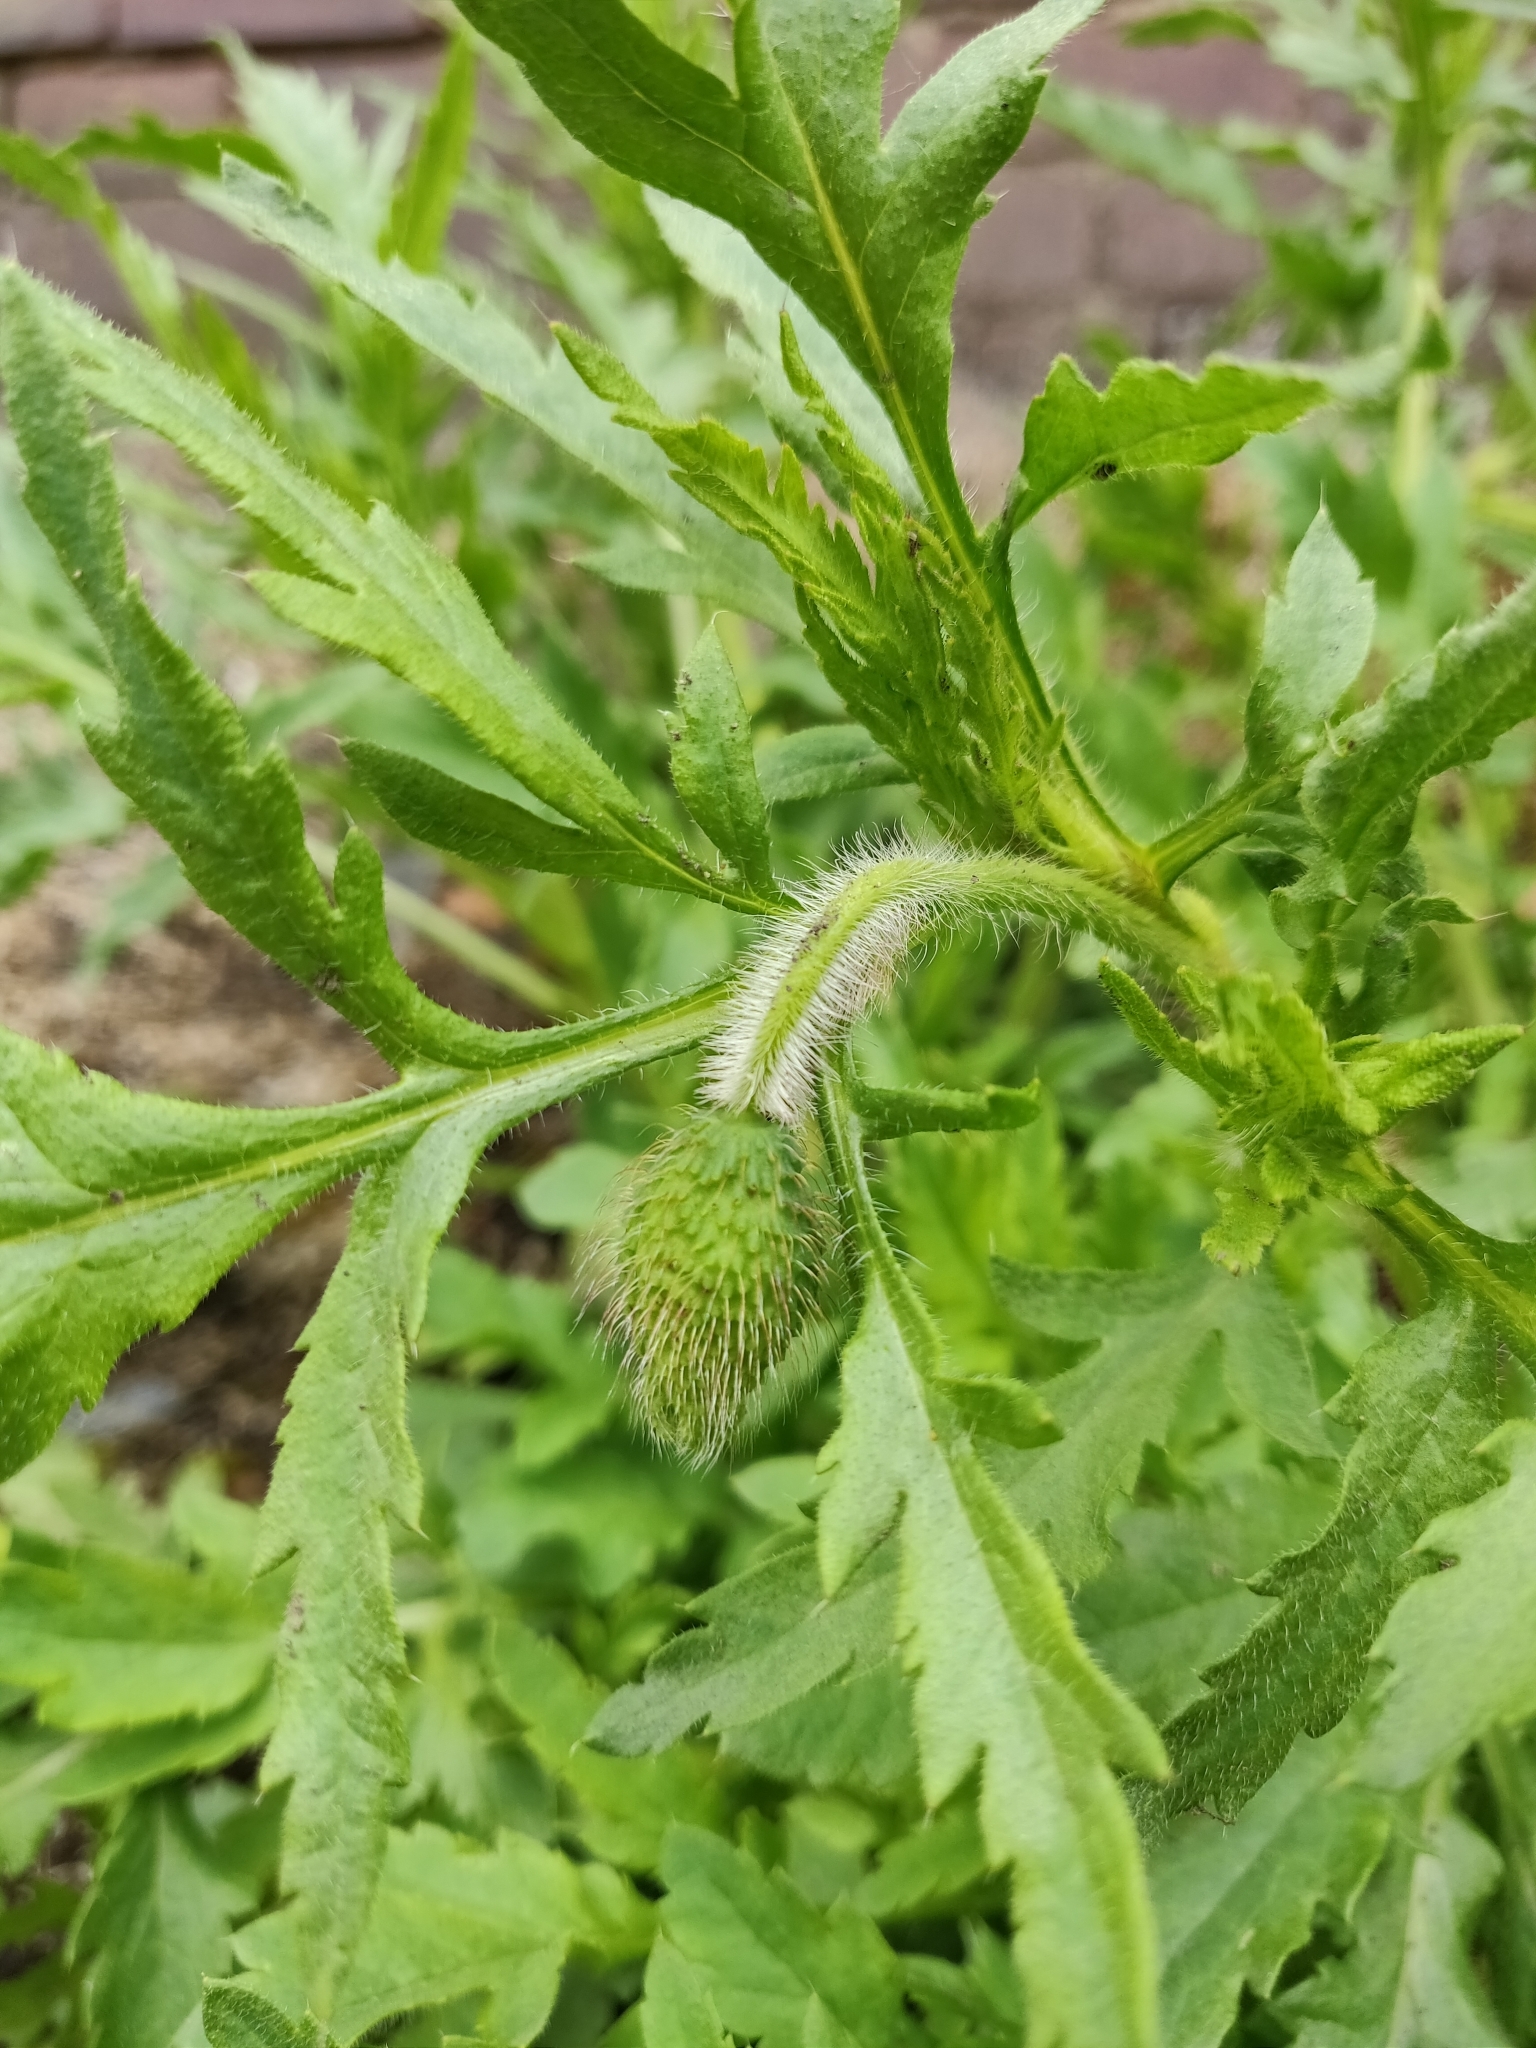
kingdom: Plantae
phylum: Tracheophyta
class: Magnoliopsida
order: Ranunculales
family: Papaveraceae
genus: Papaver
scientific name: Papaver rhoeas
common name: Corn poppy
